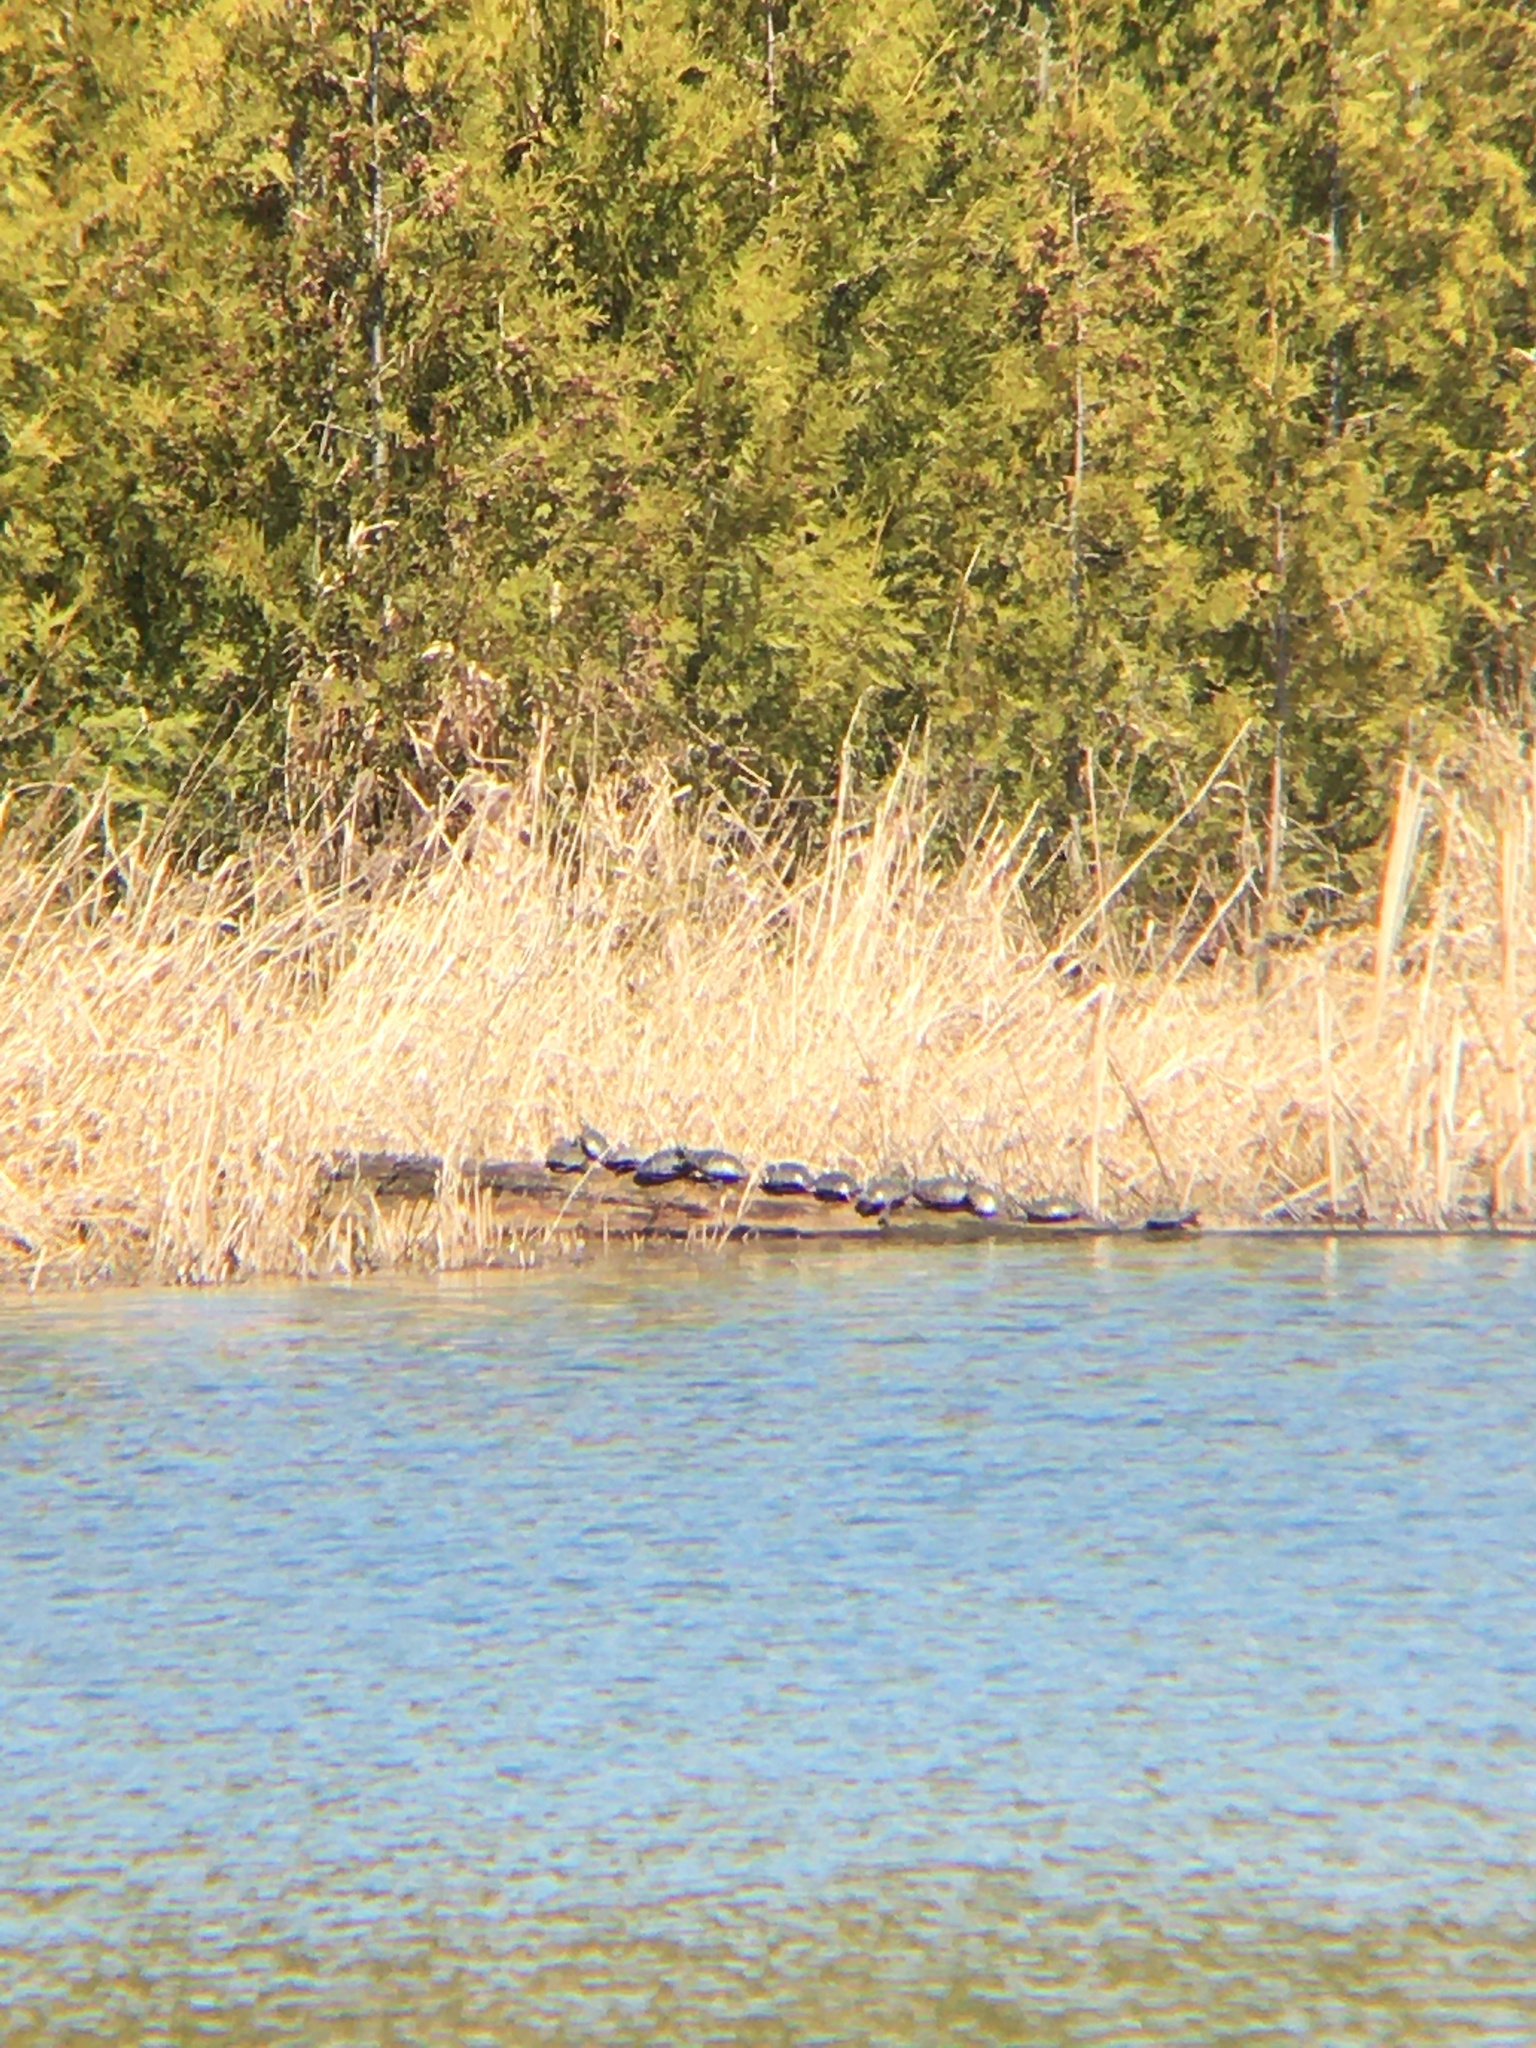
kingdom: Animalia
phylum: Chordata
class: Testudines
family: Emydidae
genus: Chrysemys
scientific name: Chrysemys picta
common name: Painted turtle
